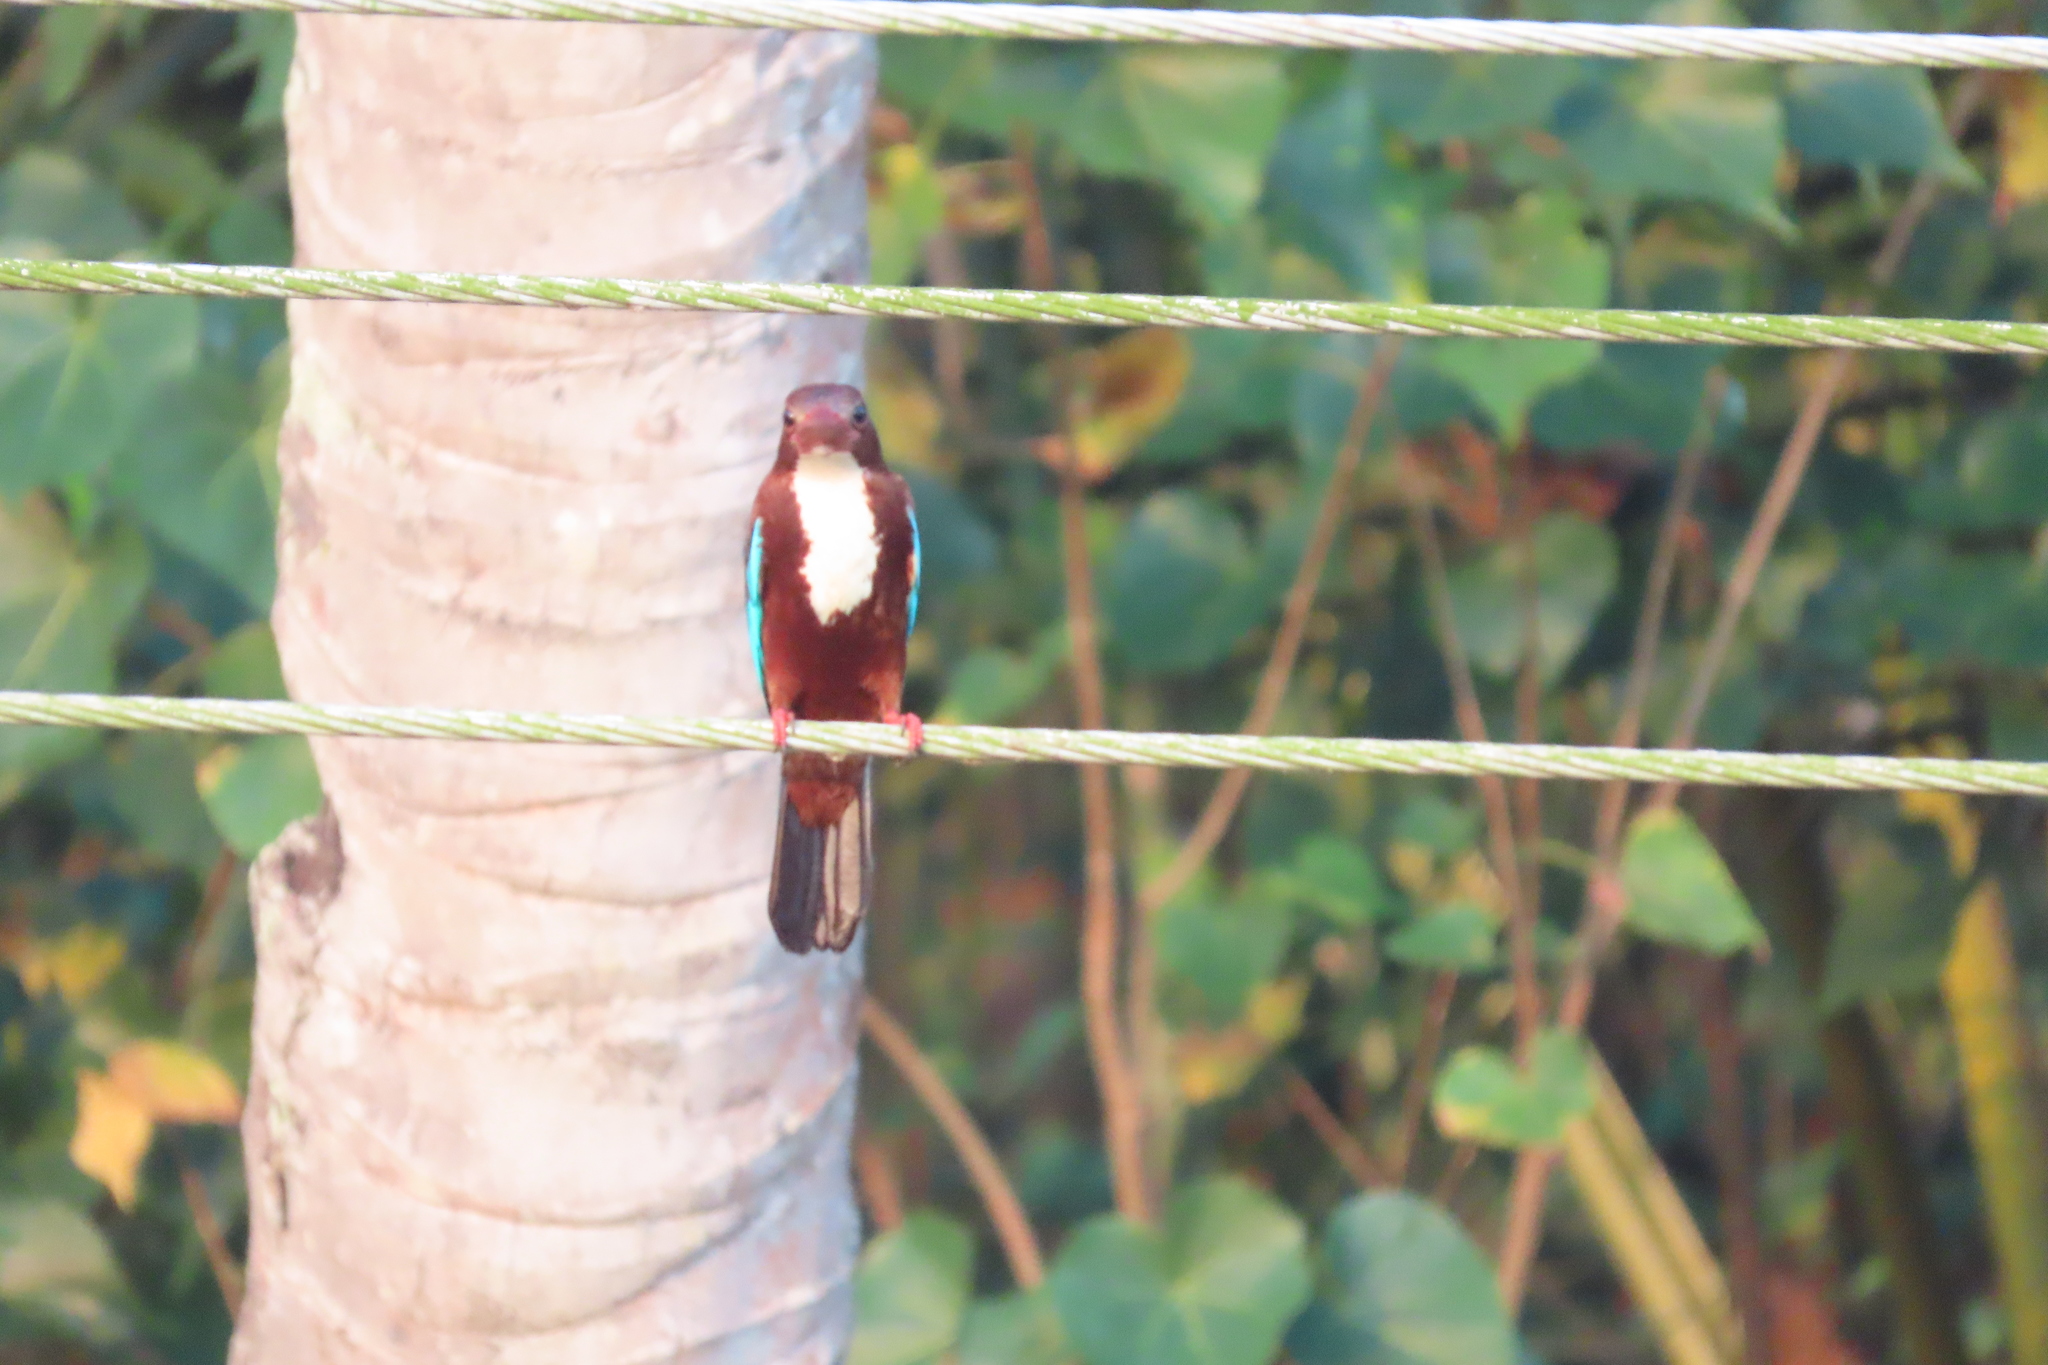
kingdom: Animalia
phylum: Chordata
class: Aves
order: Coraciiformes
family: Alcedinidae
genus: Halcyon
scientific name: Halcyon smyrnensis
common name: White-throated kingfisher
